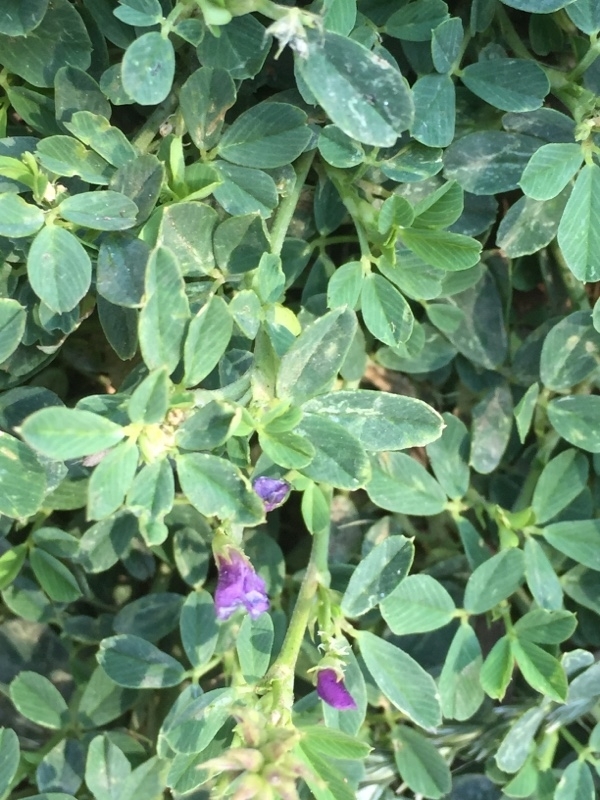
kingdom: Plantae
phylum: Tracheophyta
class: Magnoliopsida
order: Fabales
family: Fabaceae
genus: Medicago
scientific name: Medicago sativa
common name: Alfalfa
